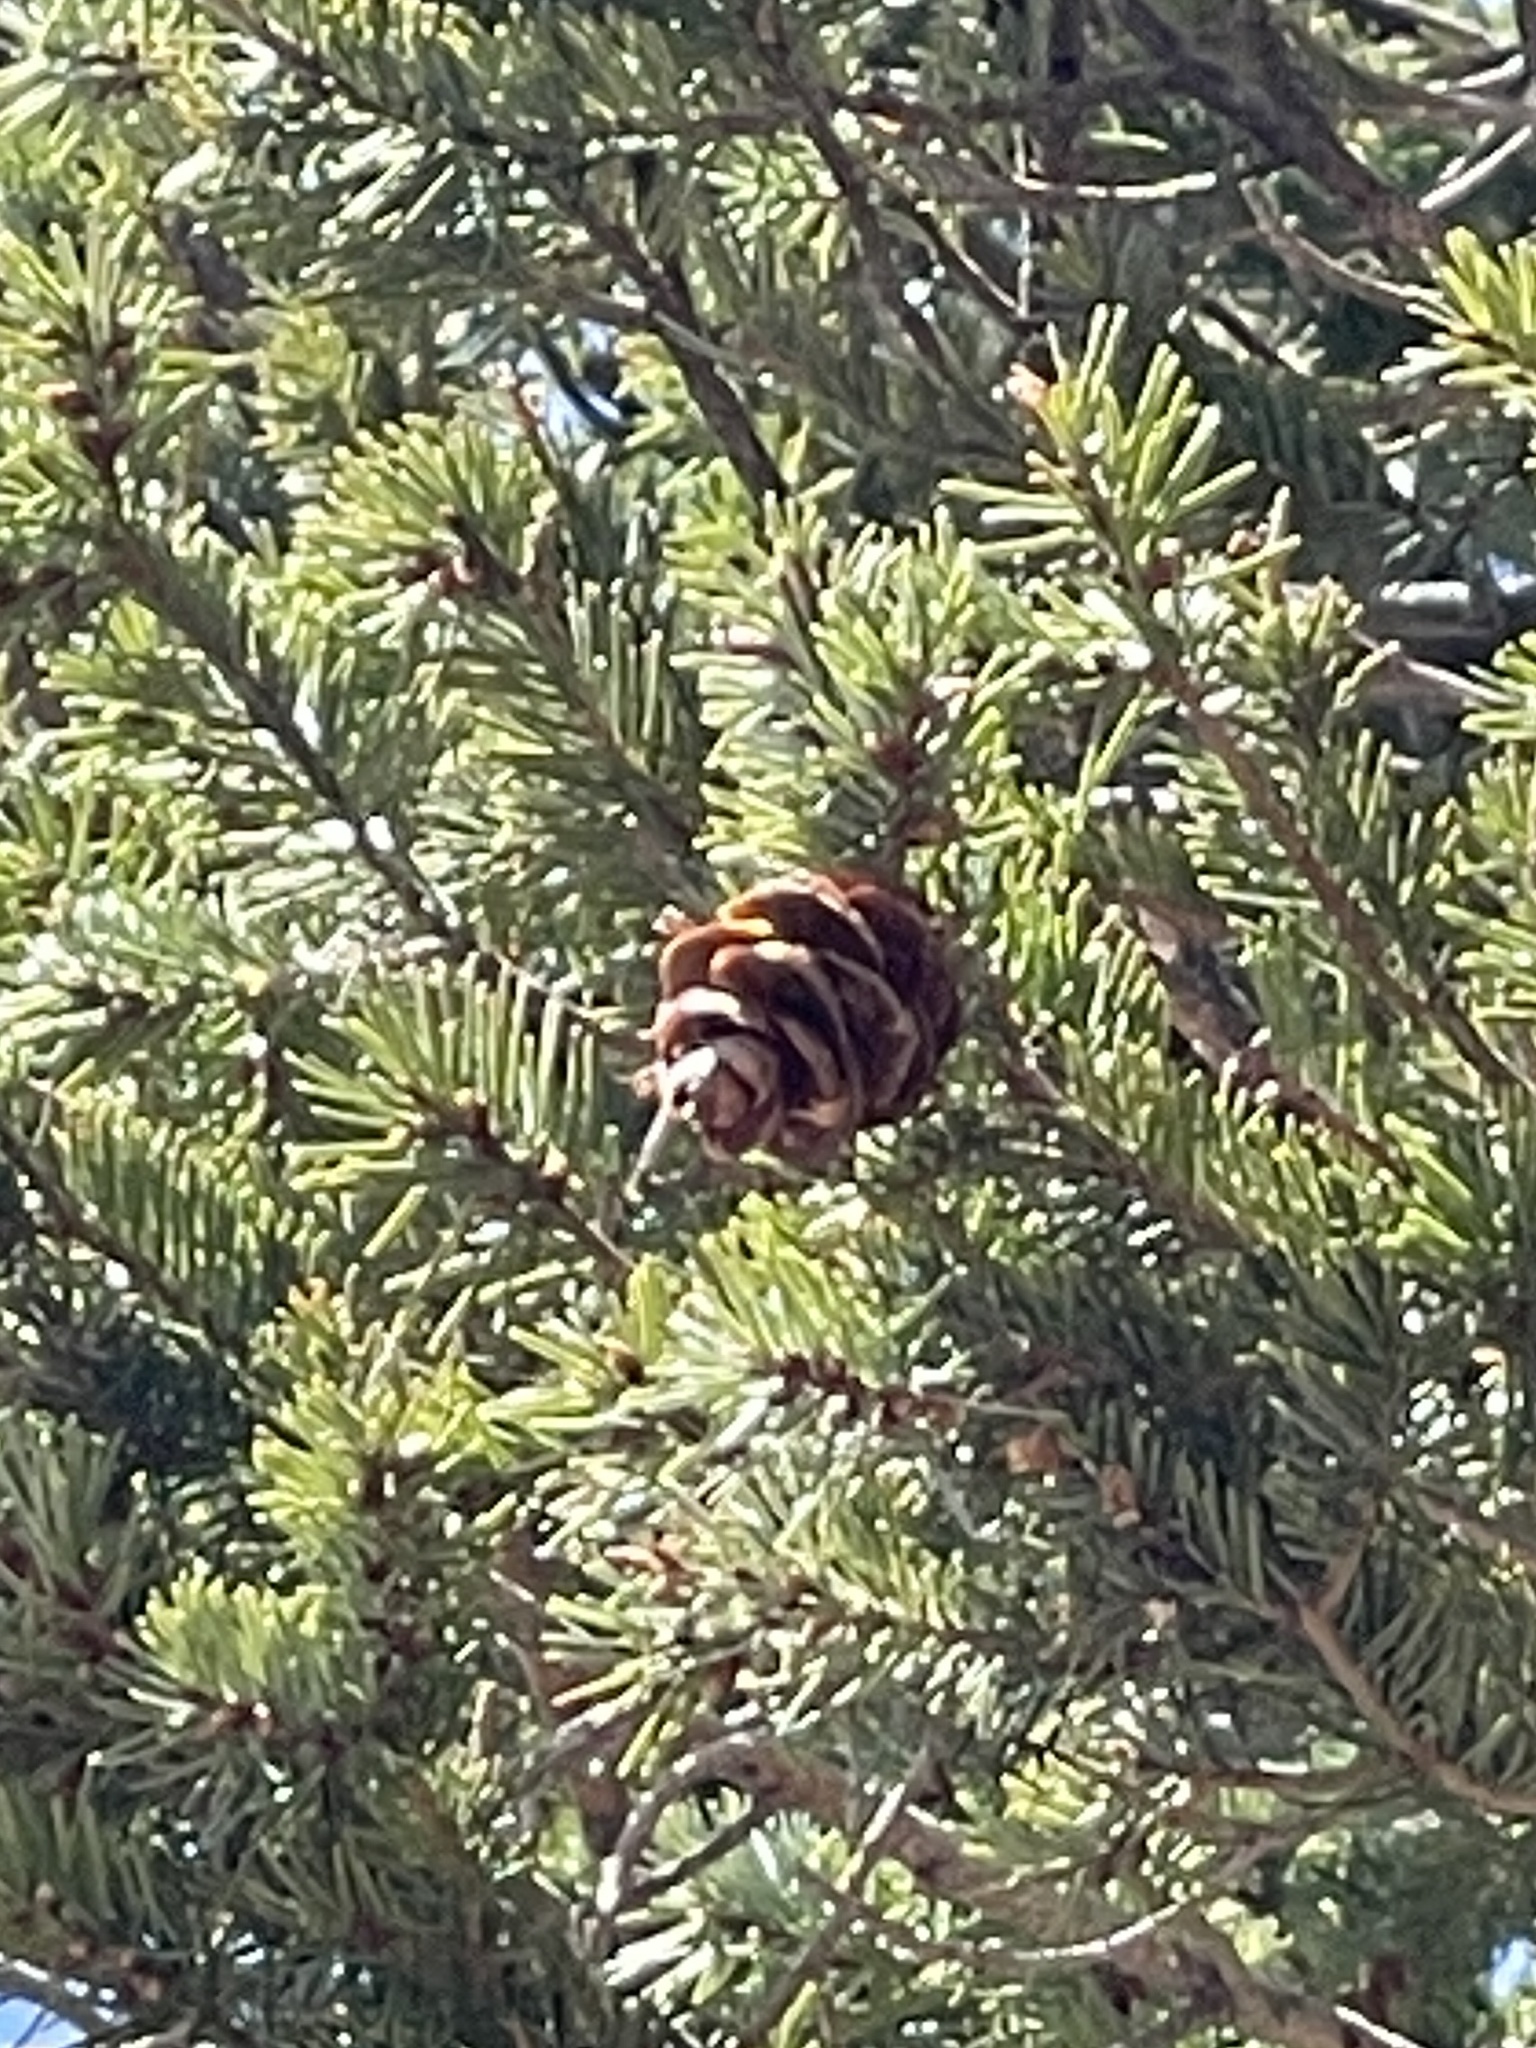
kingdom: Plantae
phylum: Tracheophyta
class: Pinopsida
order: Pinales
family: Pinaceae
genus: Pseudotsuga
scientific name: Pseudotsuga menziesii
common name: Douglas fir
